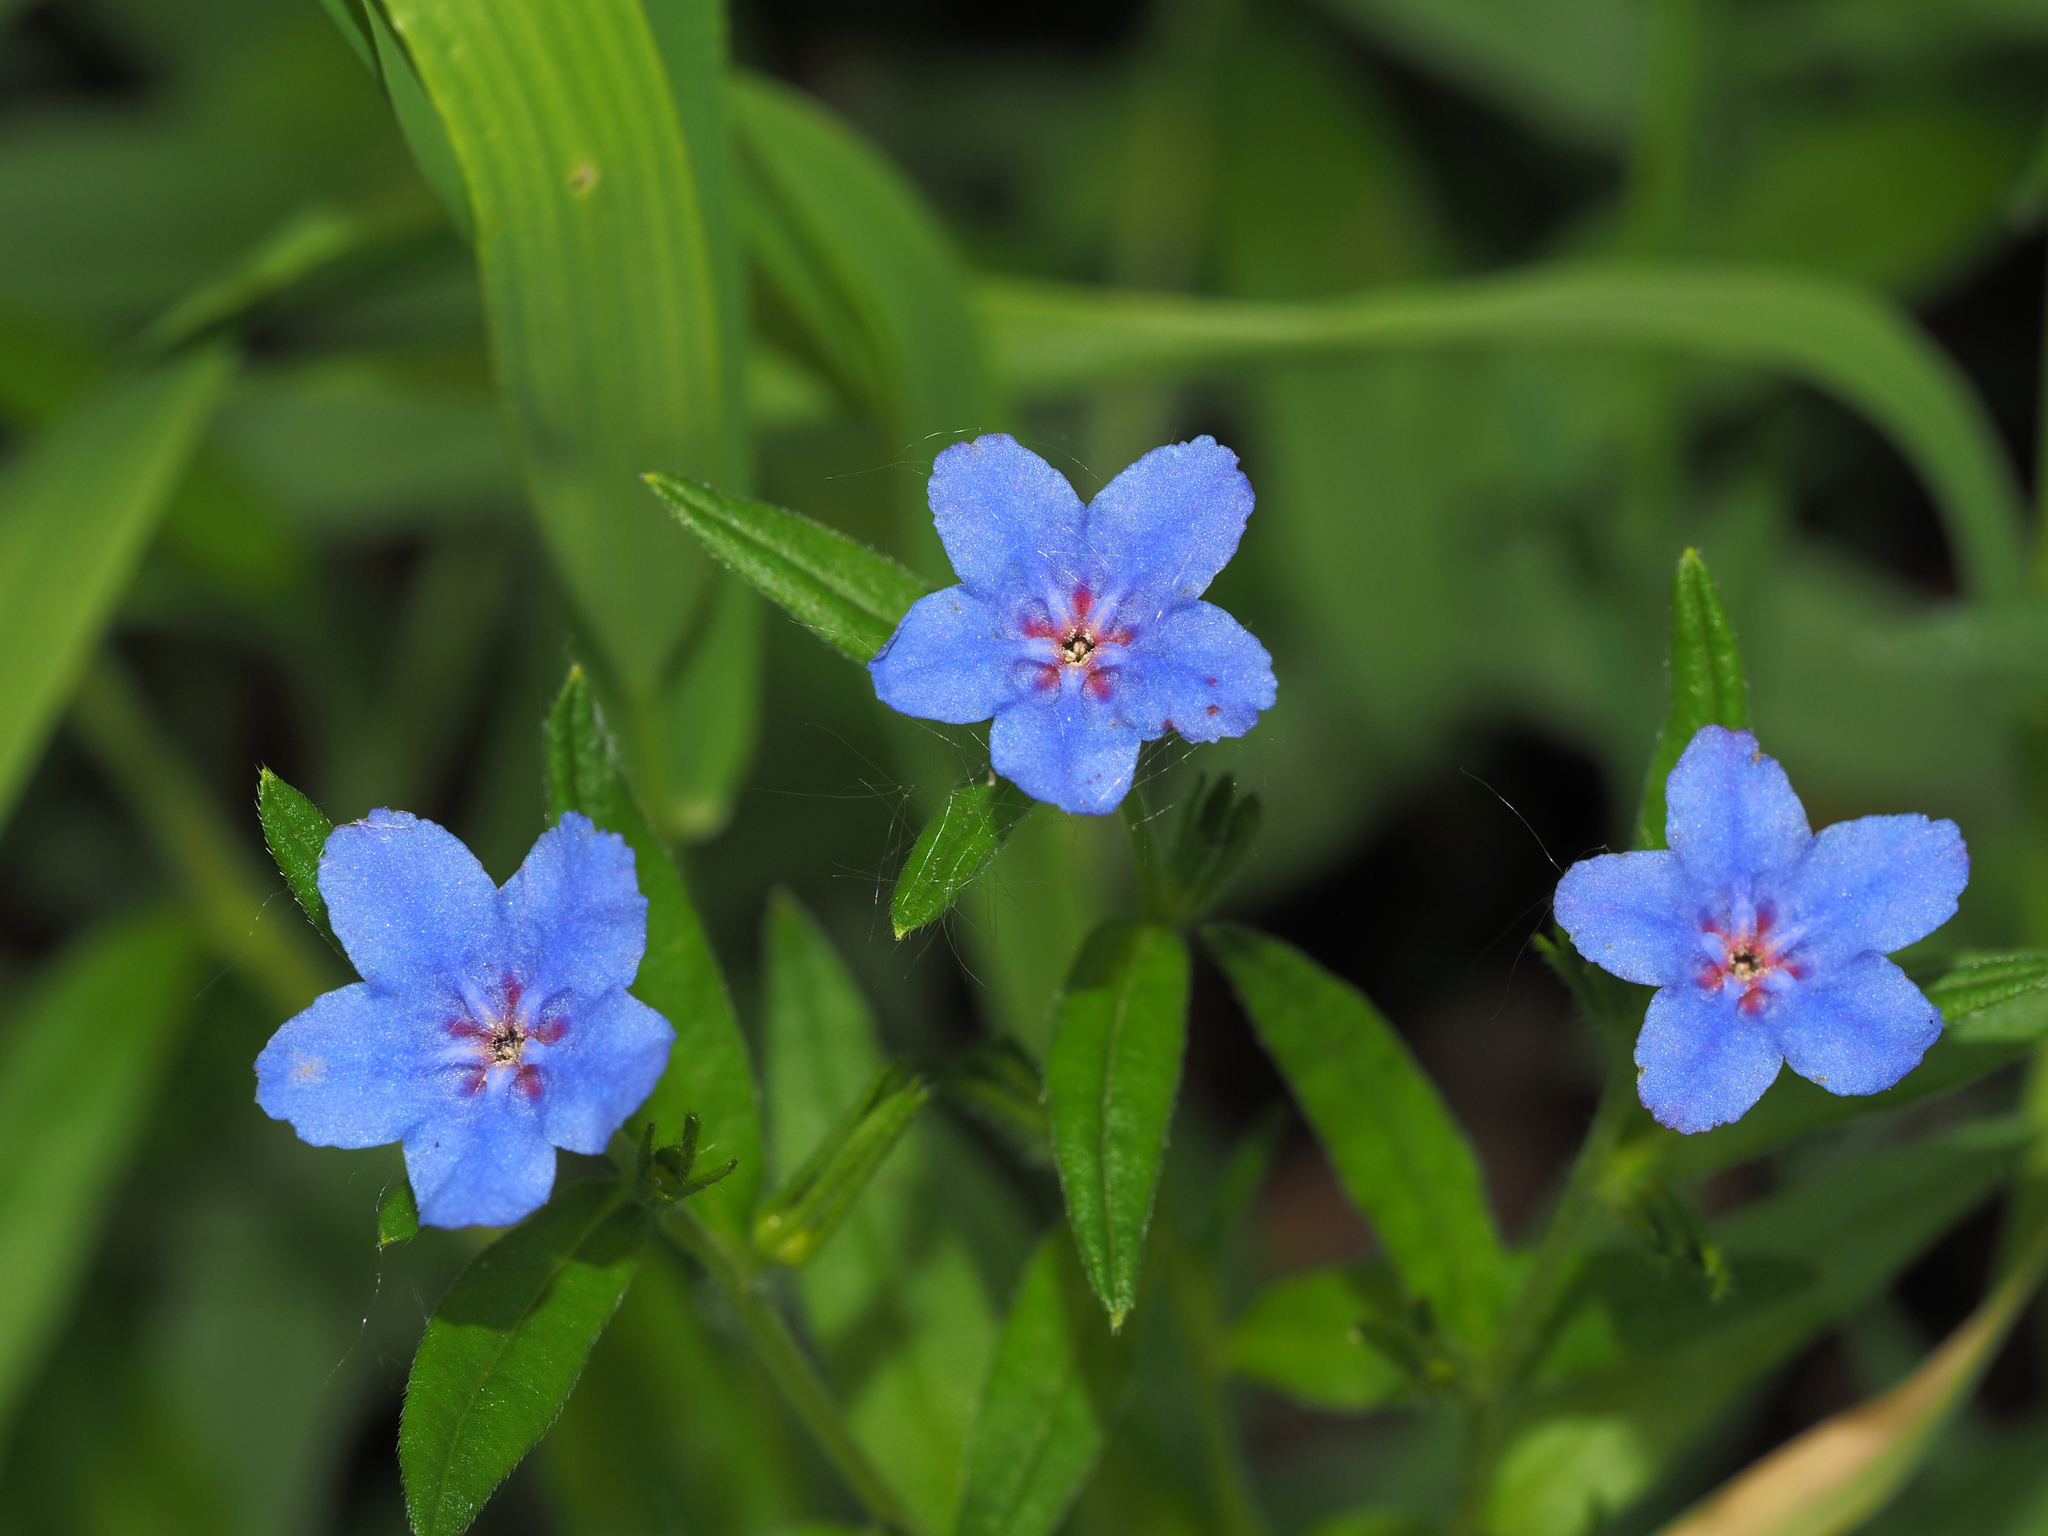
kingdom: Plantae
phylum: Tracheophyta
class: Magnoliopsida
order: Boraginales
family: Boraginaceae
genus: Aegonychon
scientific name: Aegonychon purpurocaeruleum
